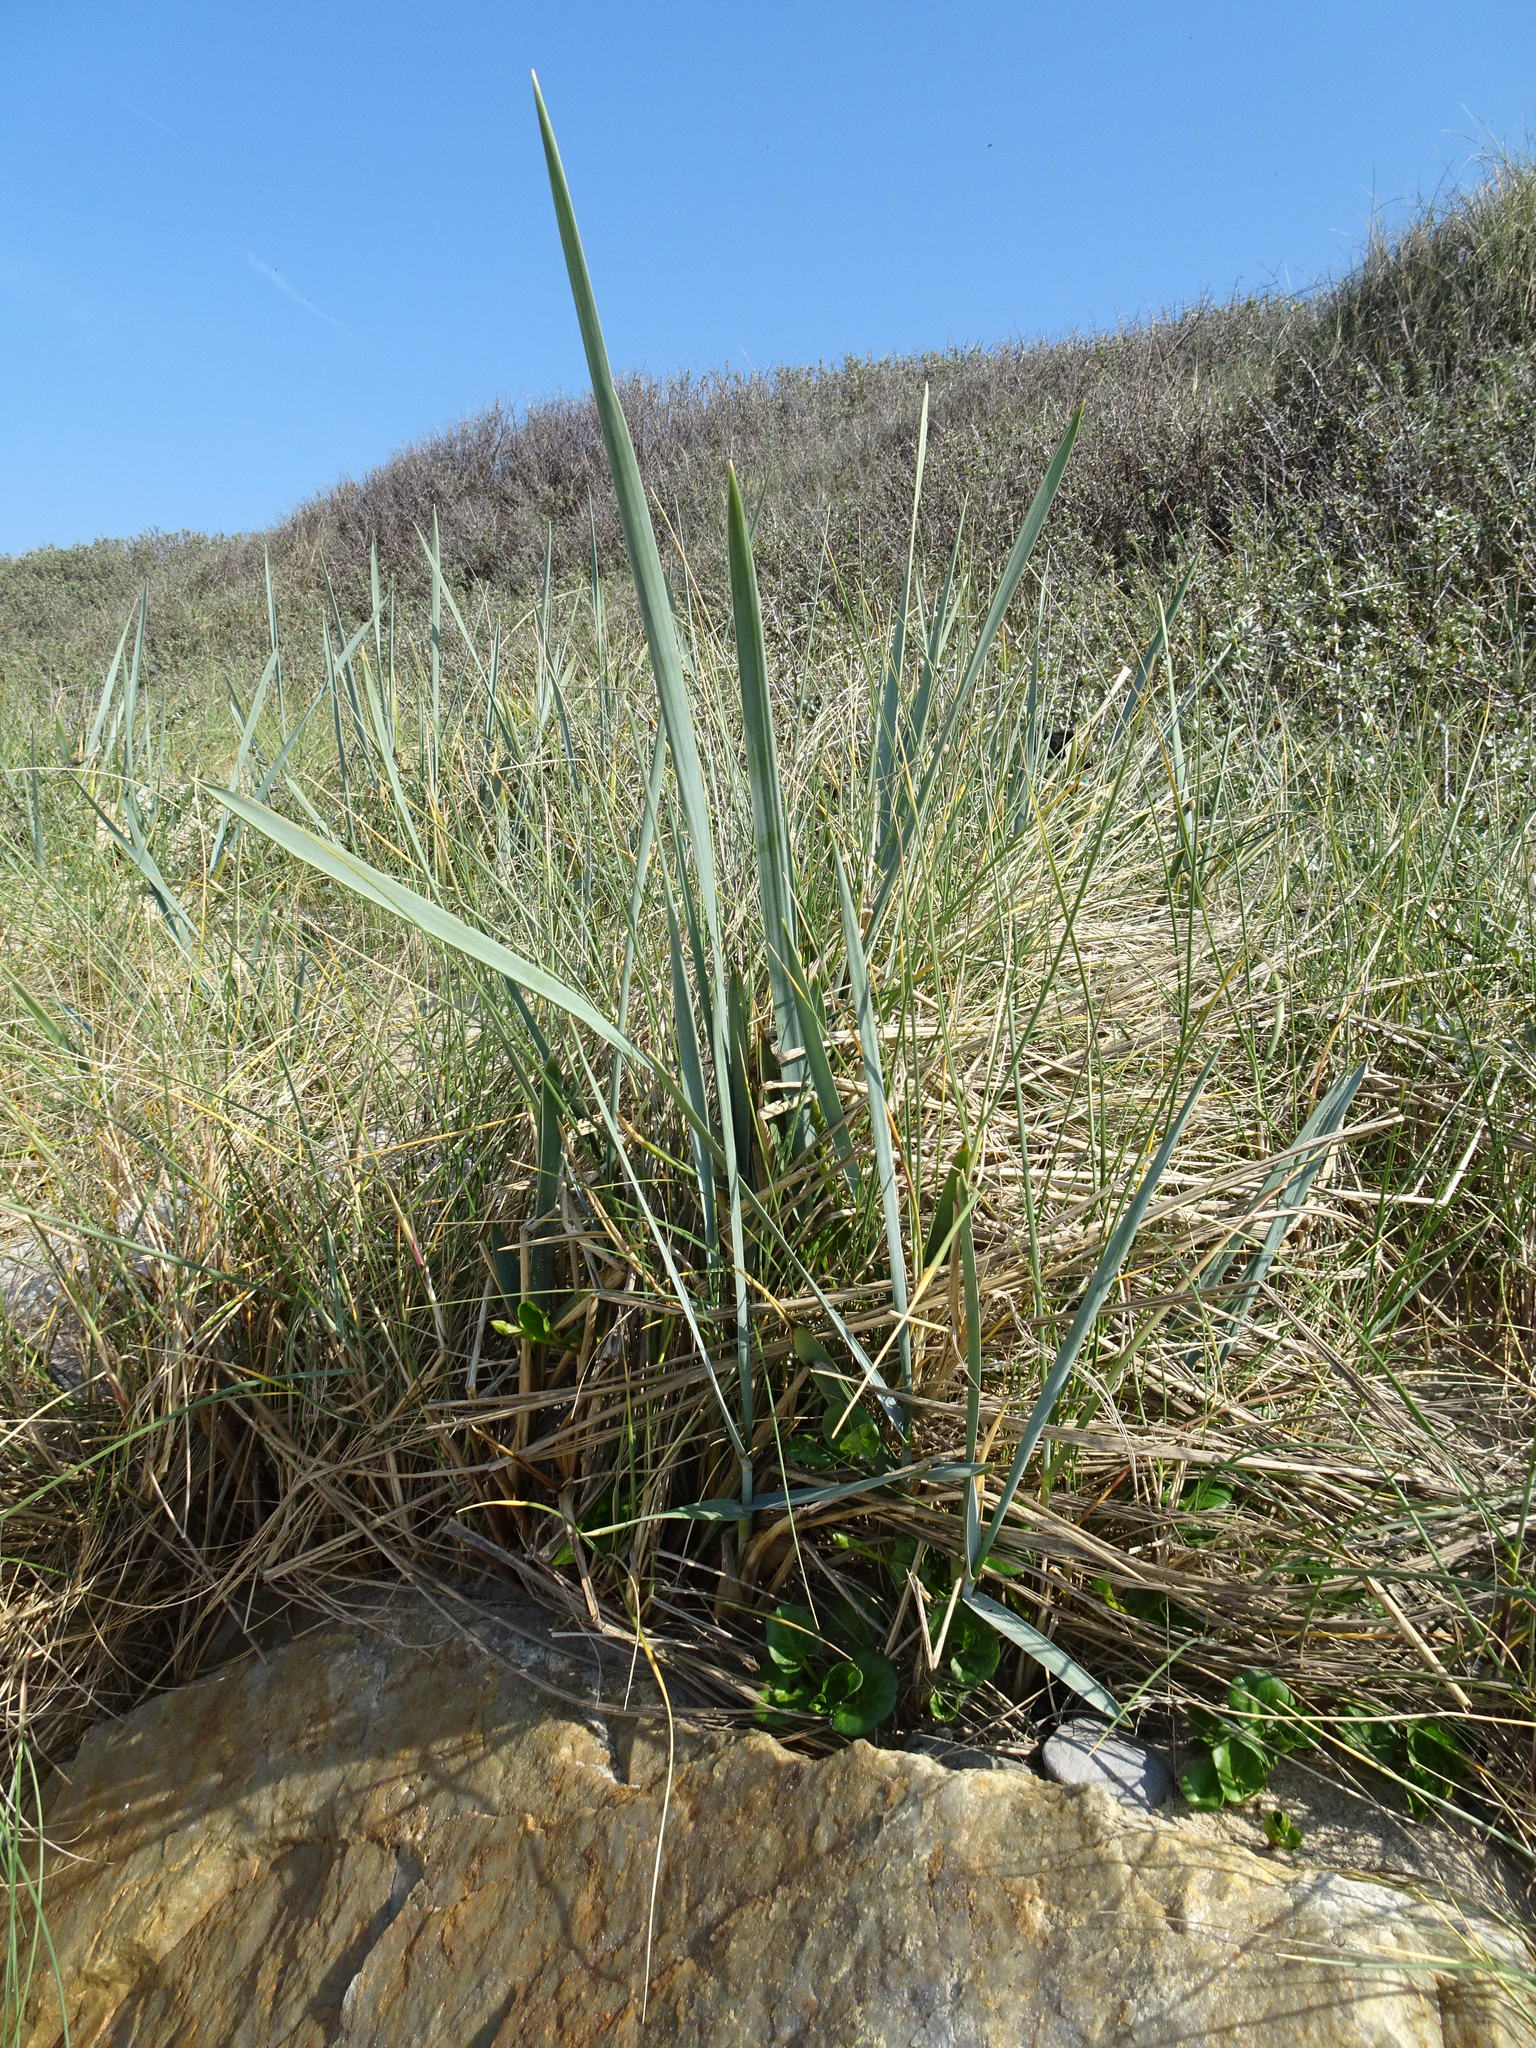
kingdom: Plantae
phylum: Tracheophyta
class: Liliopsida
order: Poales
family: Poaceae
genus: Leymus
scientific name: Leymus arenarius
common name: Lyme-grass
